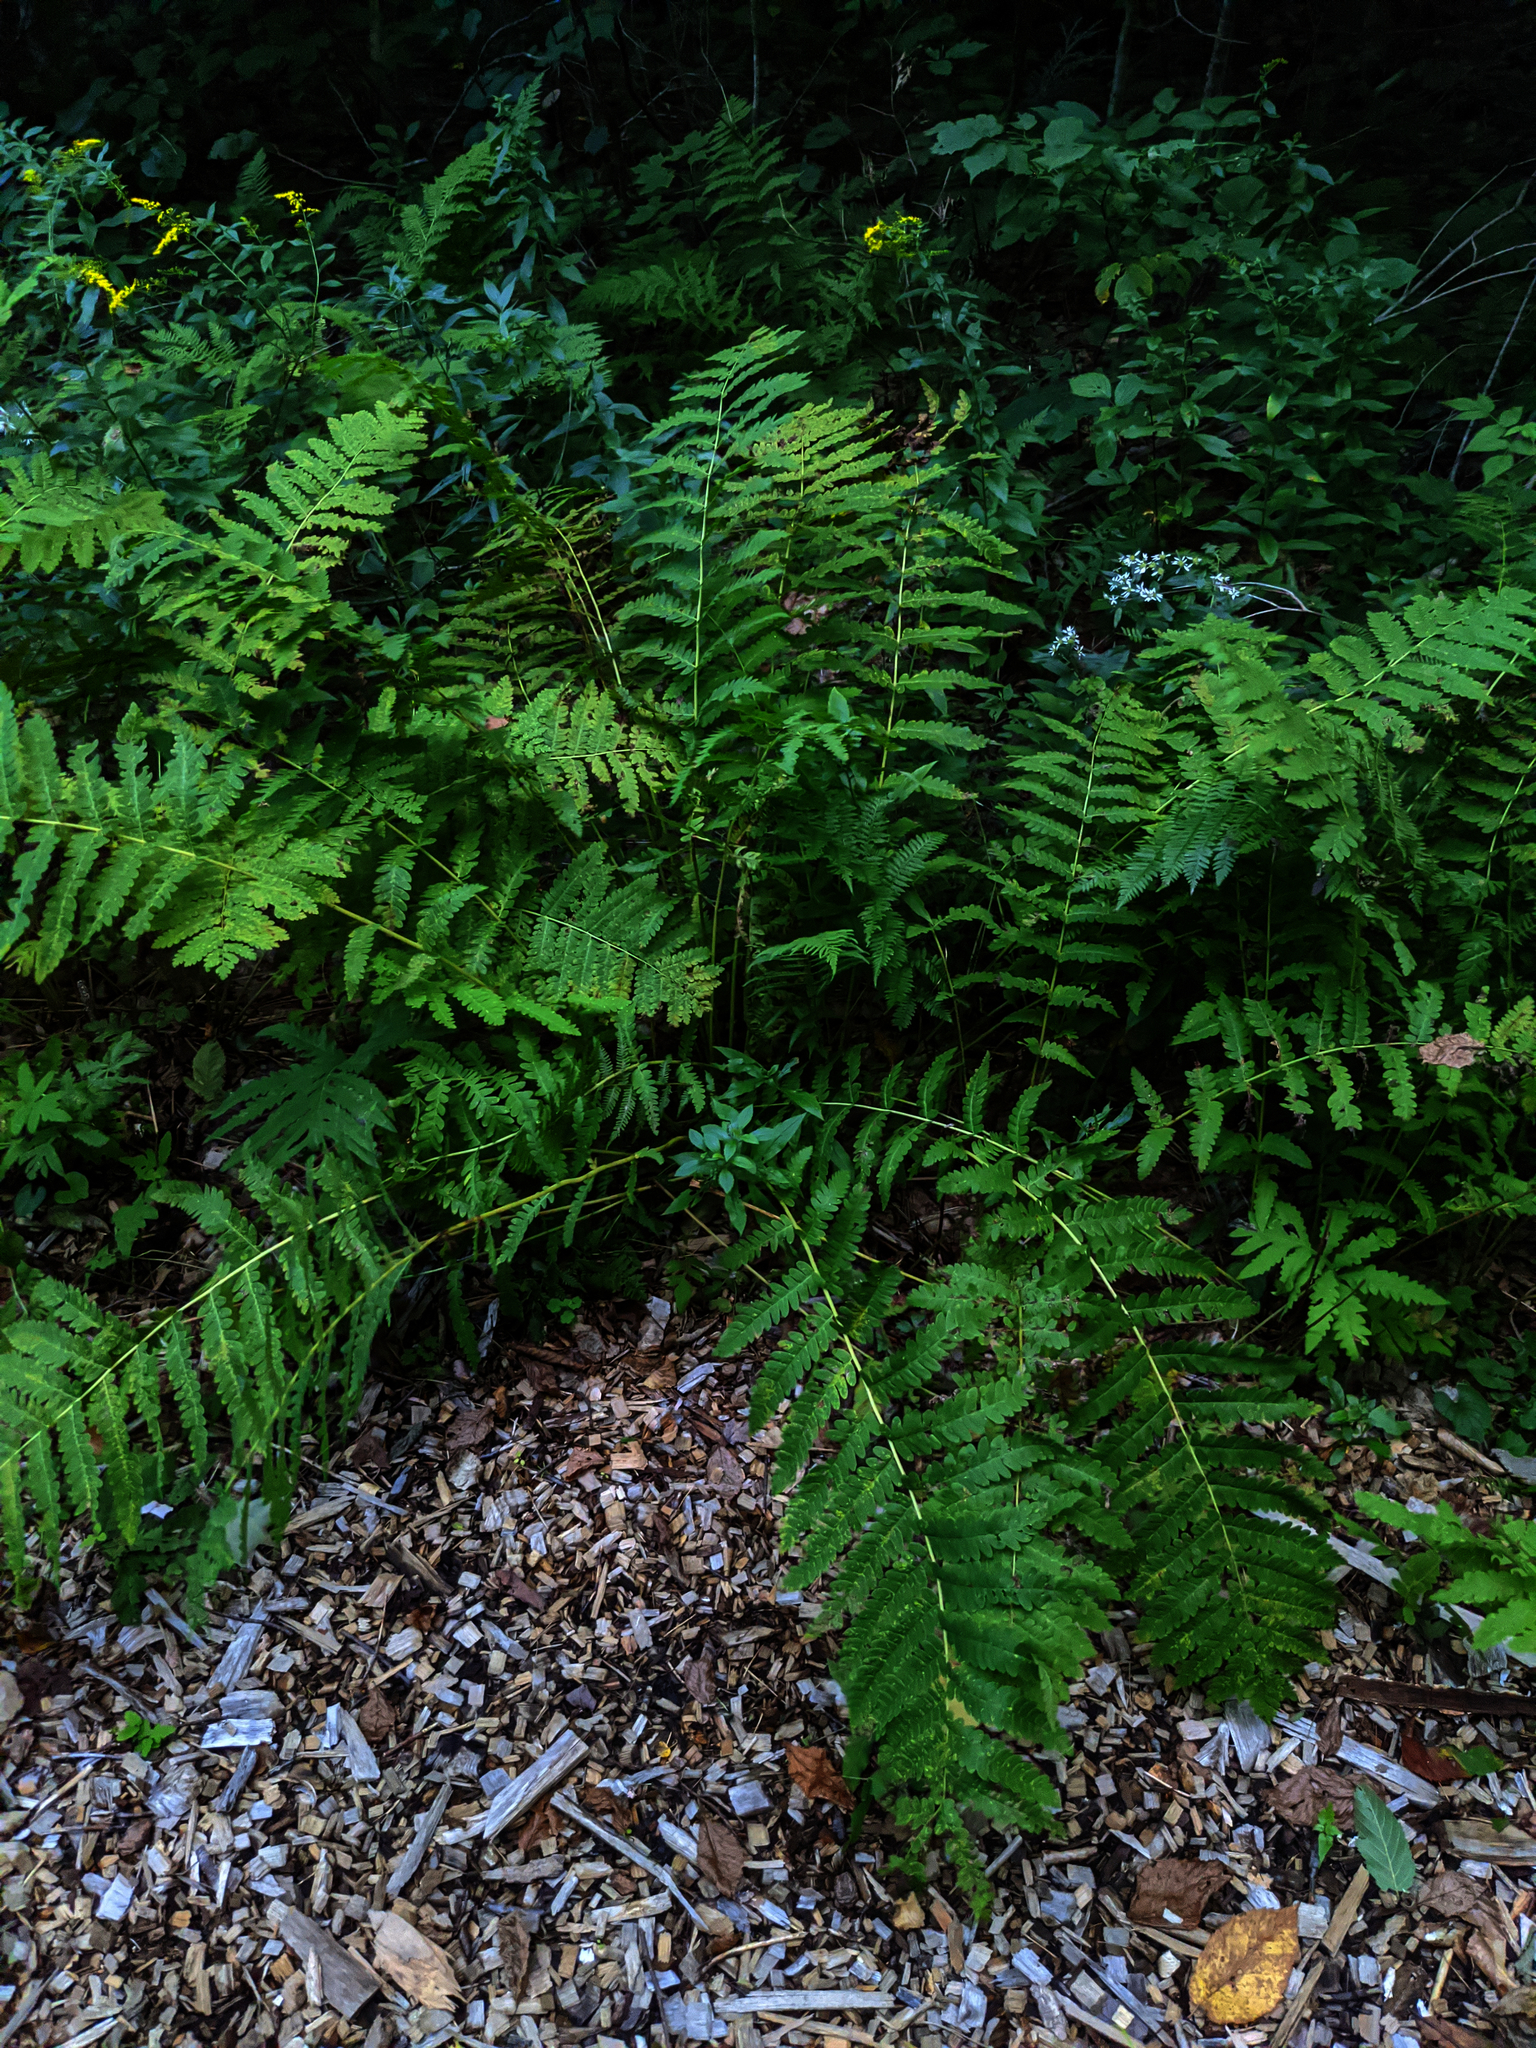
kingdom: Plantae
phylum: Tracheophyta
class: Polypodiopsida
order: Osmundales
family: Osmundaceae
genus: Claytosmunda
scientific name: Claytosmunda claytoniana
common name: Clayton's fern
